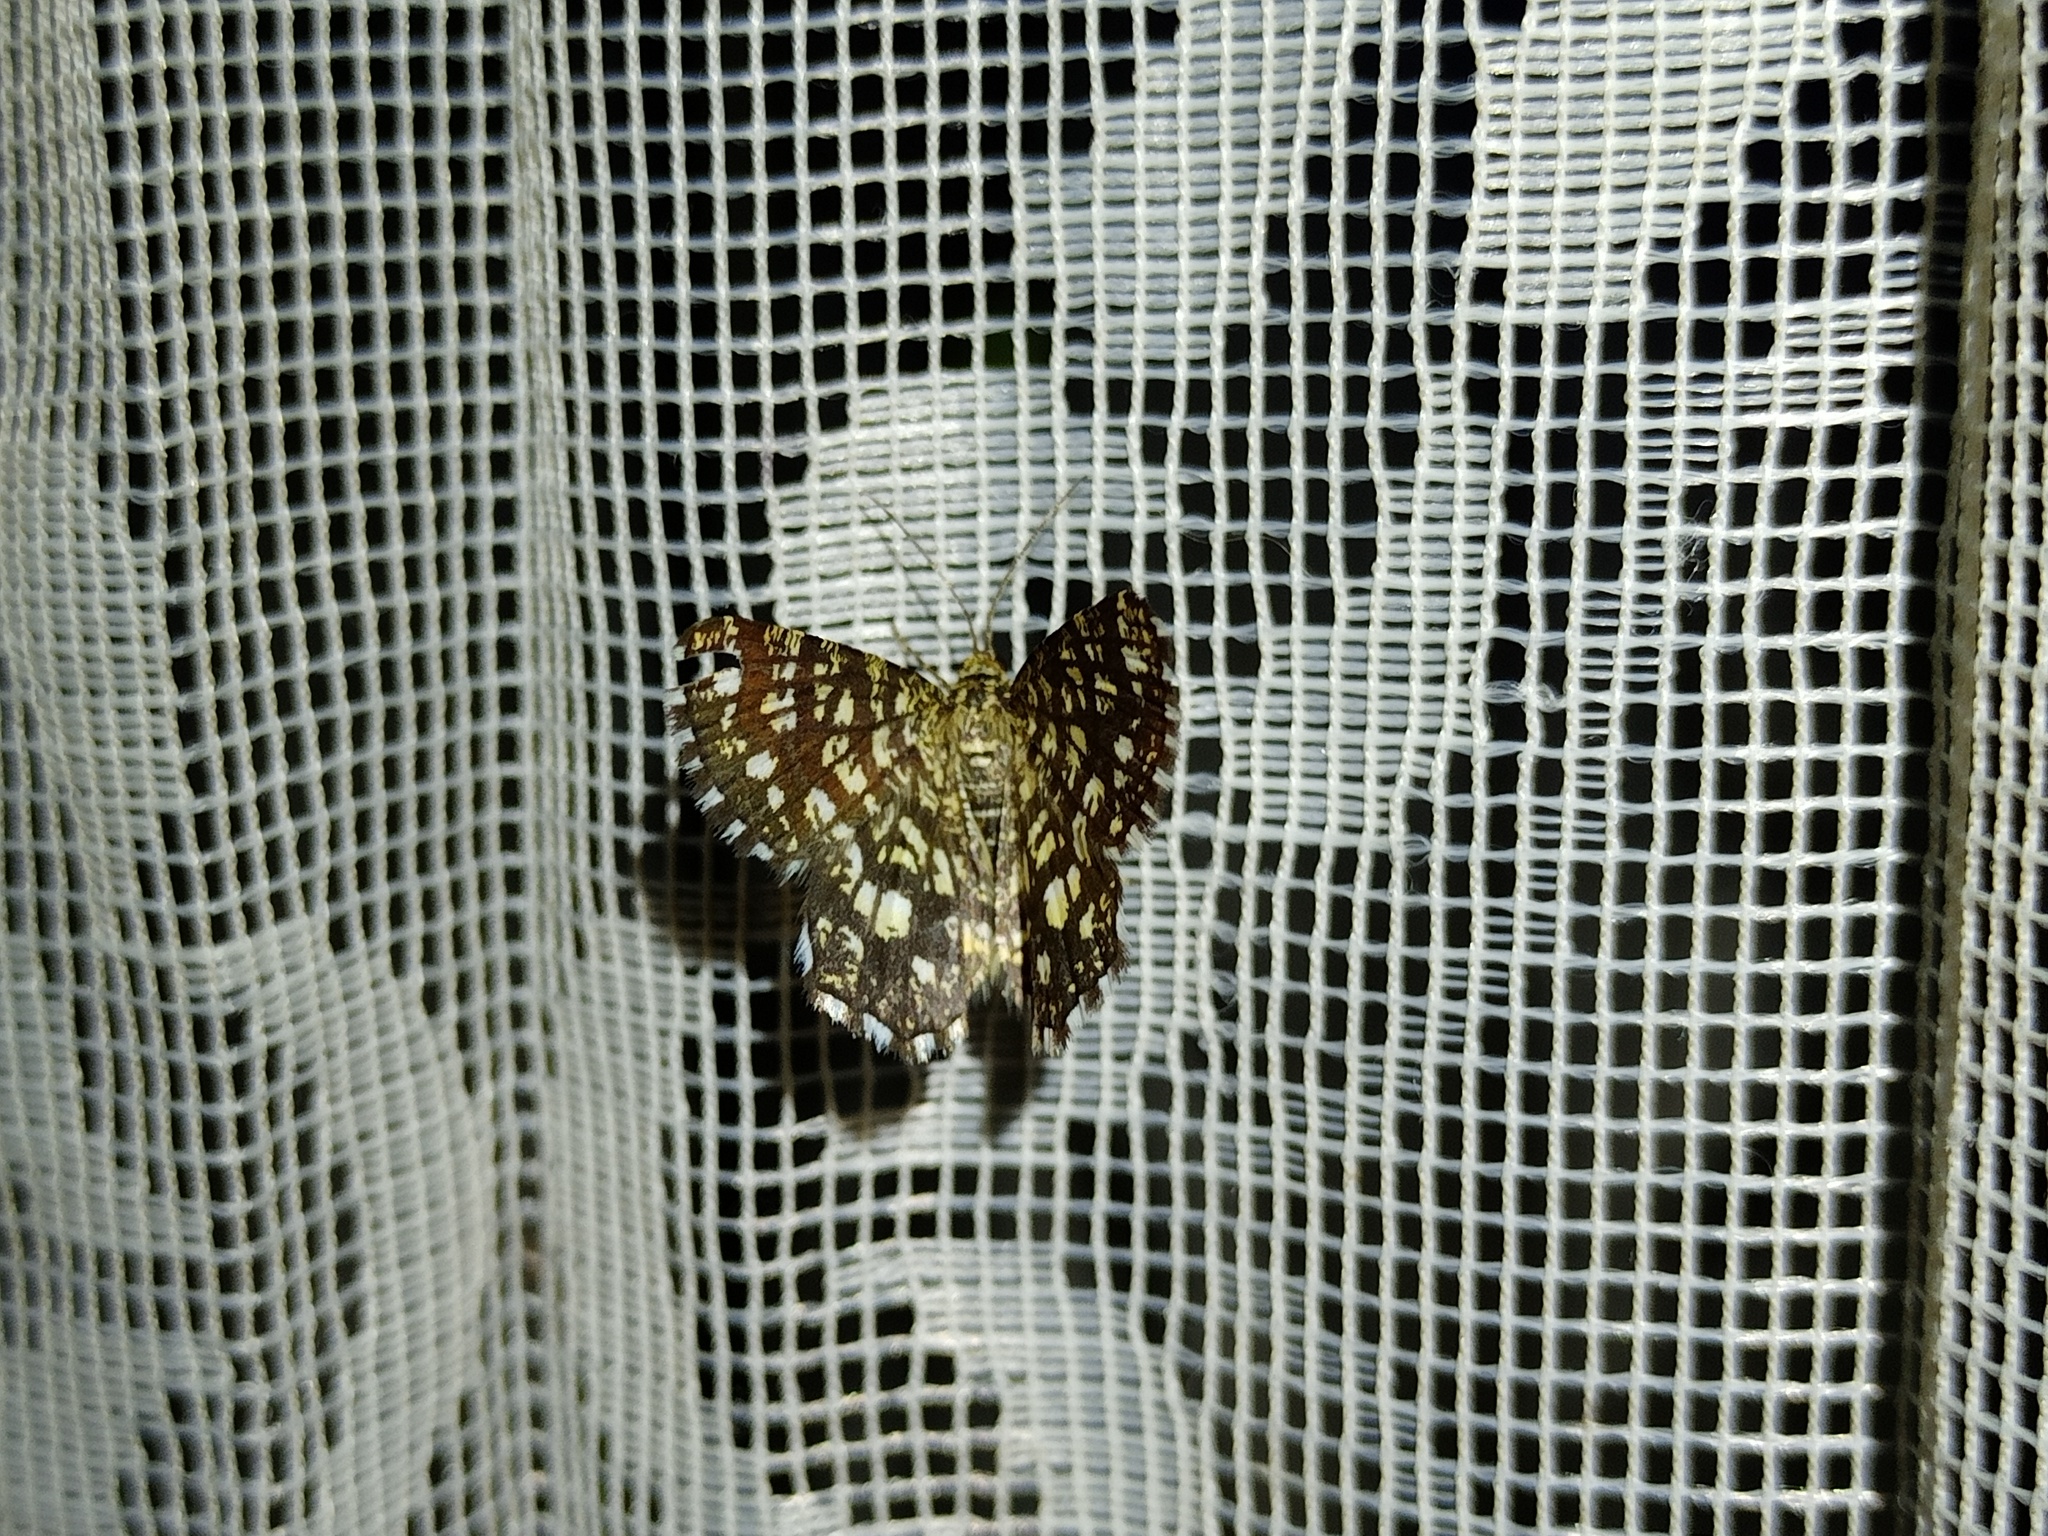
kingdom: Animalia
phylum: Arthropoda
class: Insecta
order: Lepidoptera
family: Geometridae
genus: Chiasmia
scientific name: Chiasmia clathrata
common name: Latticed heath
